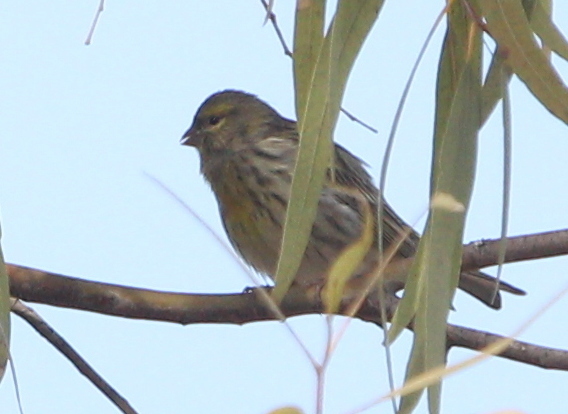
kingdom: Animalia
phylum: Chordata
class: Aves
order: Passeriformes
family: Fringillidae
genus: Serinus
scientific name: Serinus serinus
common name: European serin
